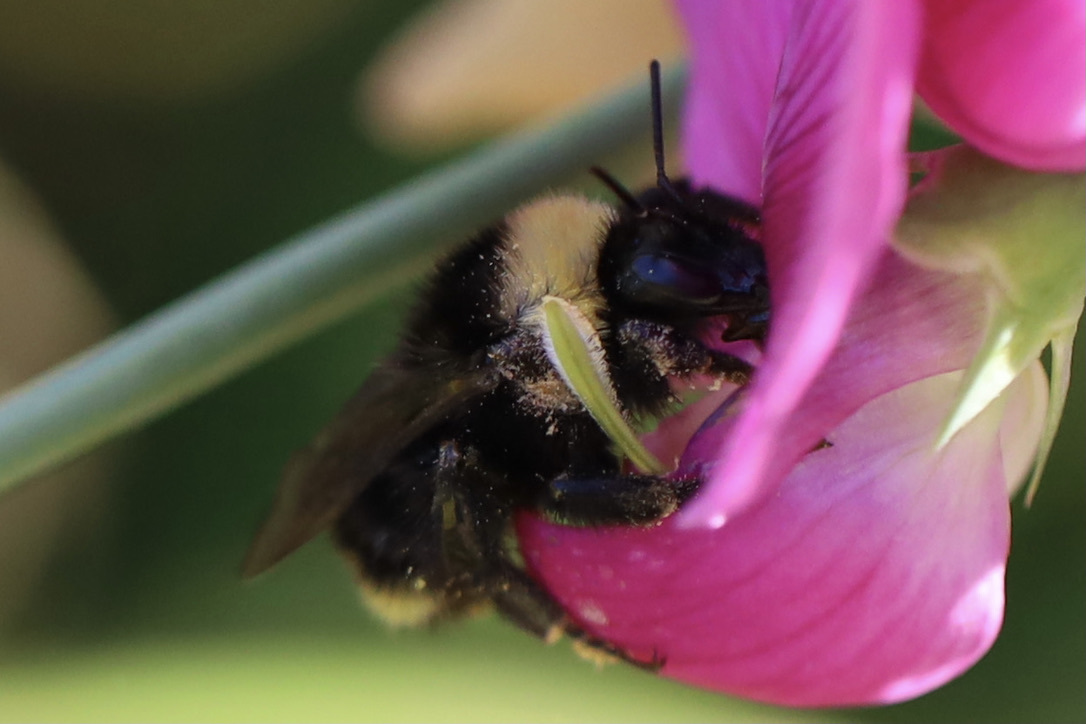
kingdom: Animalia
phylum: Arthropoda
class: Insecta
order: Hymenoptera
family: Apidae
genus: Bombus
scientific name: Bombus californicus
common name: California bumble bee
